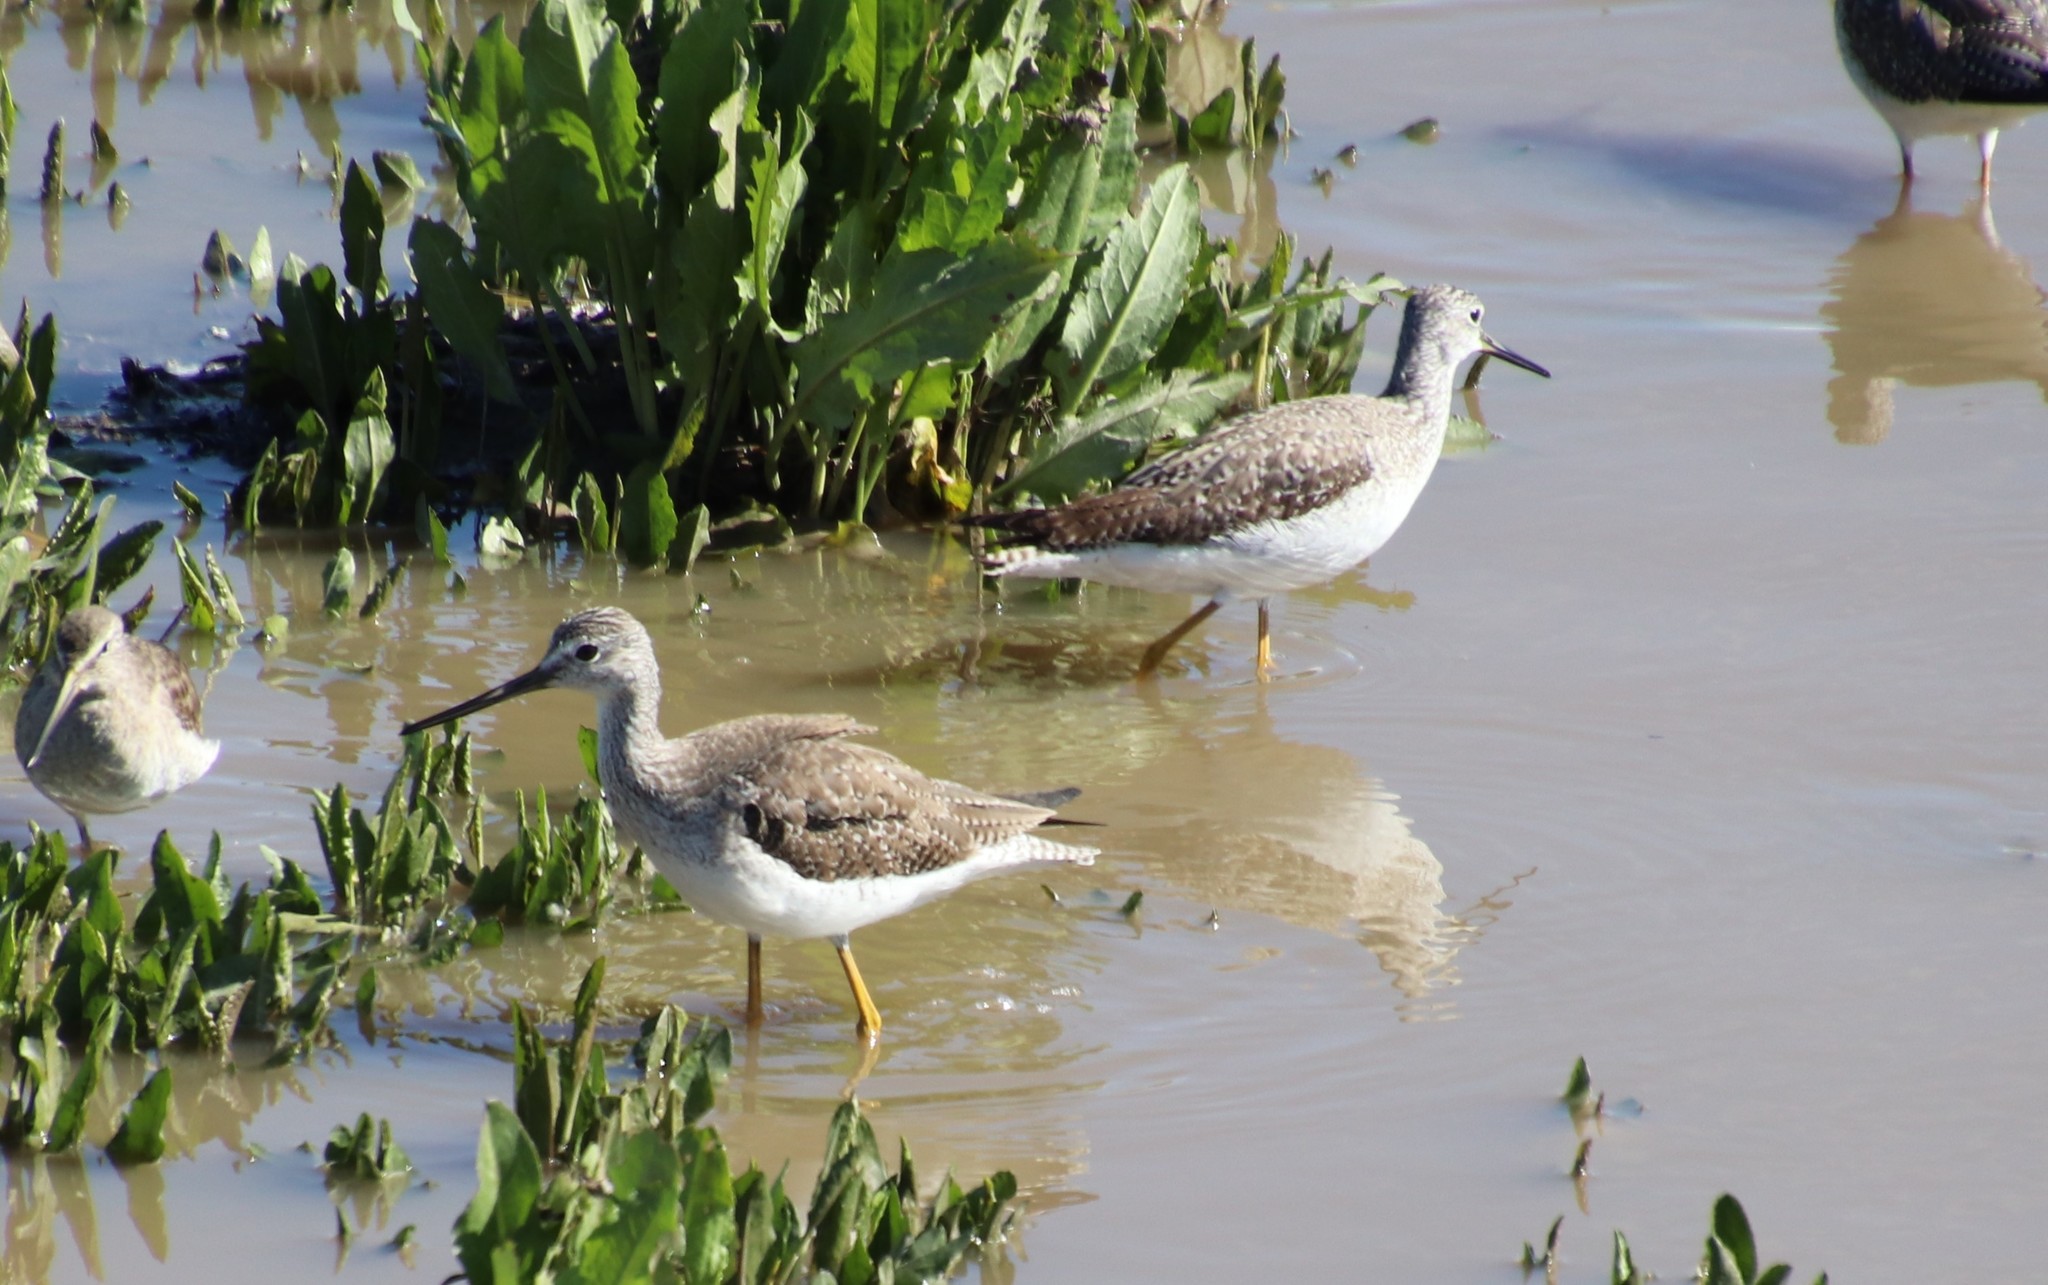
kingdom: Animalia
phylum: Chordata
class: Aves
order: Charadriiformes
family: Scolopacidae
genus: Tringa
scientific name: Tringa melanoleuca
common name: Greater yellowlegs
